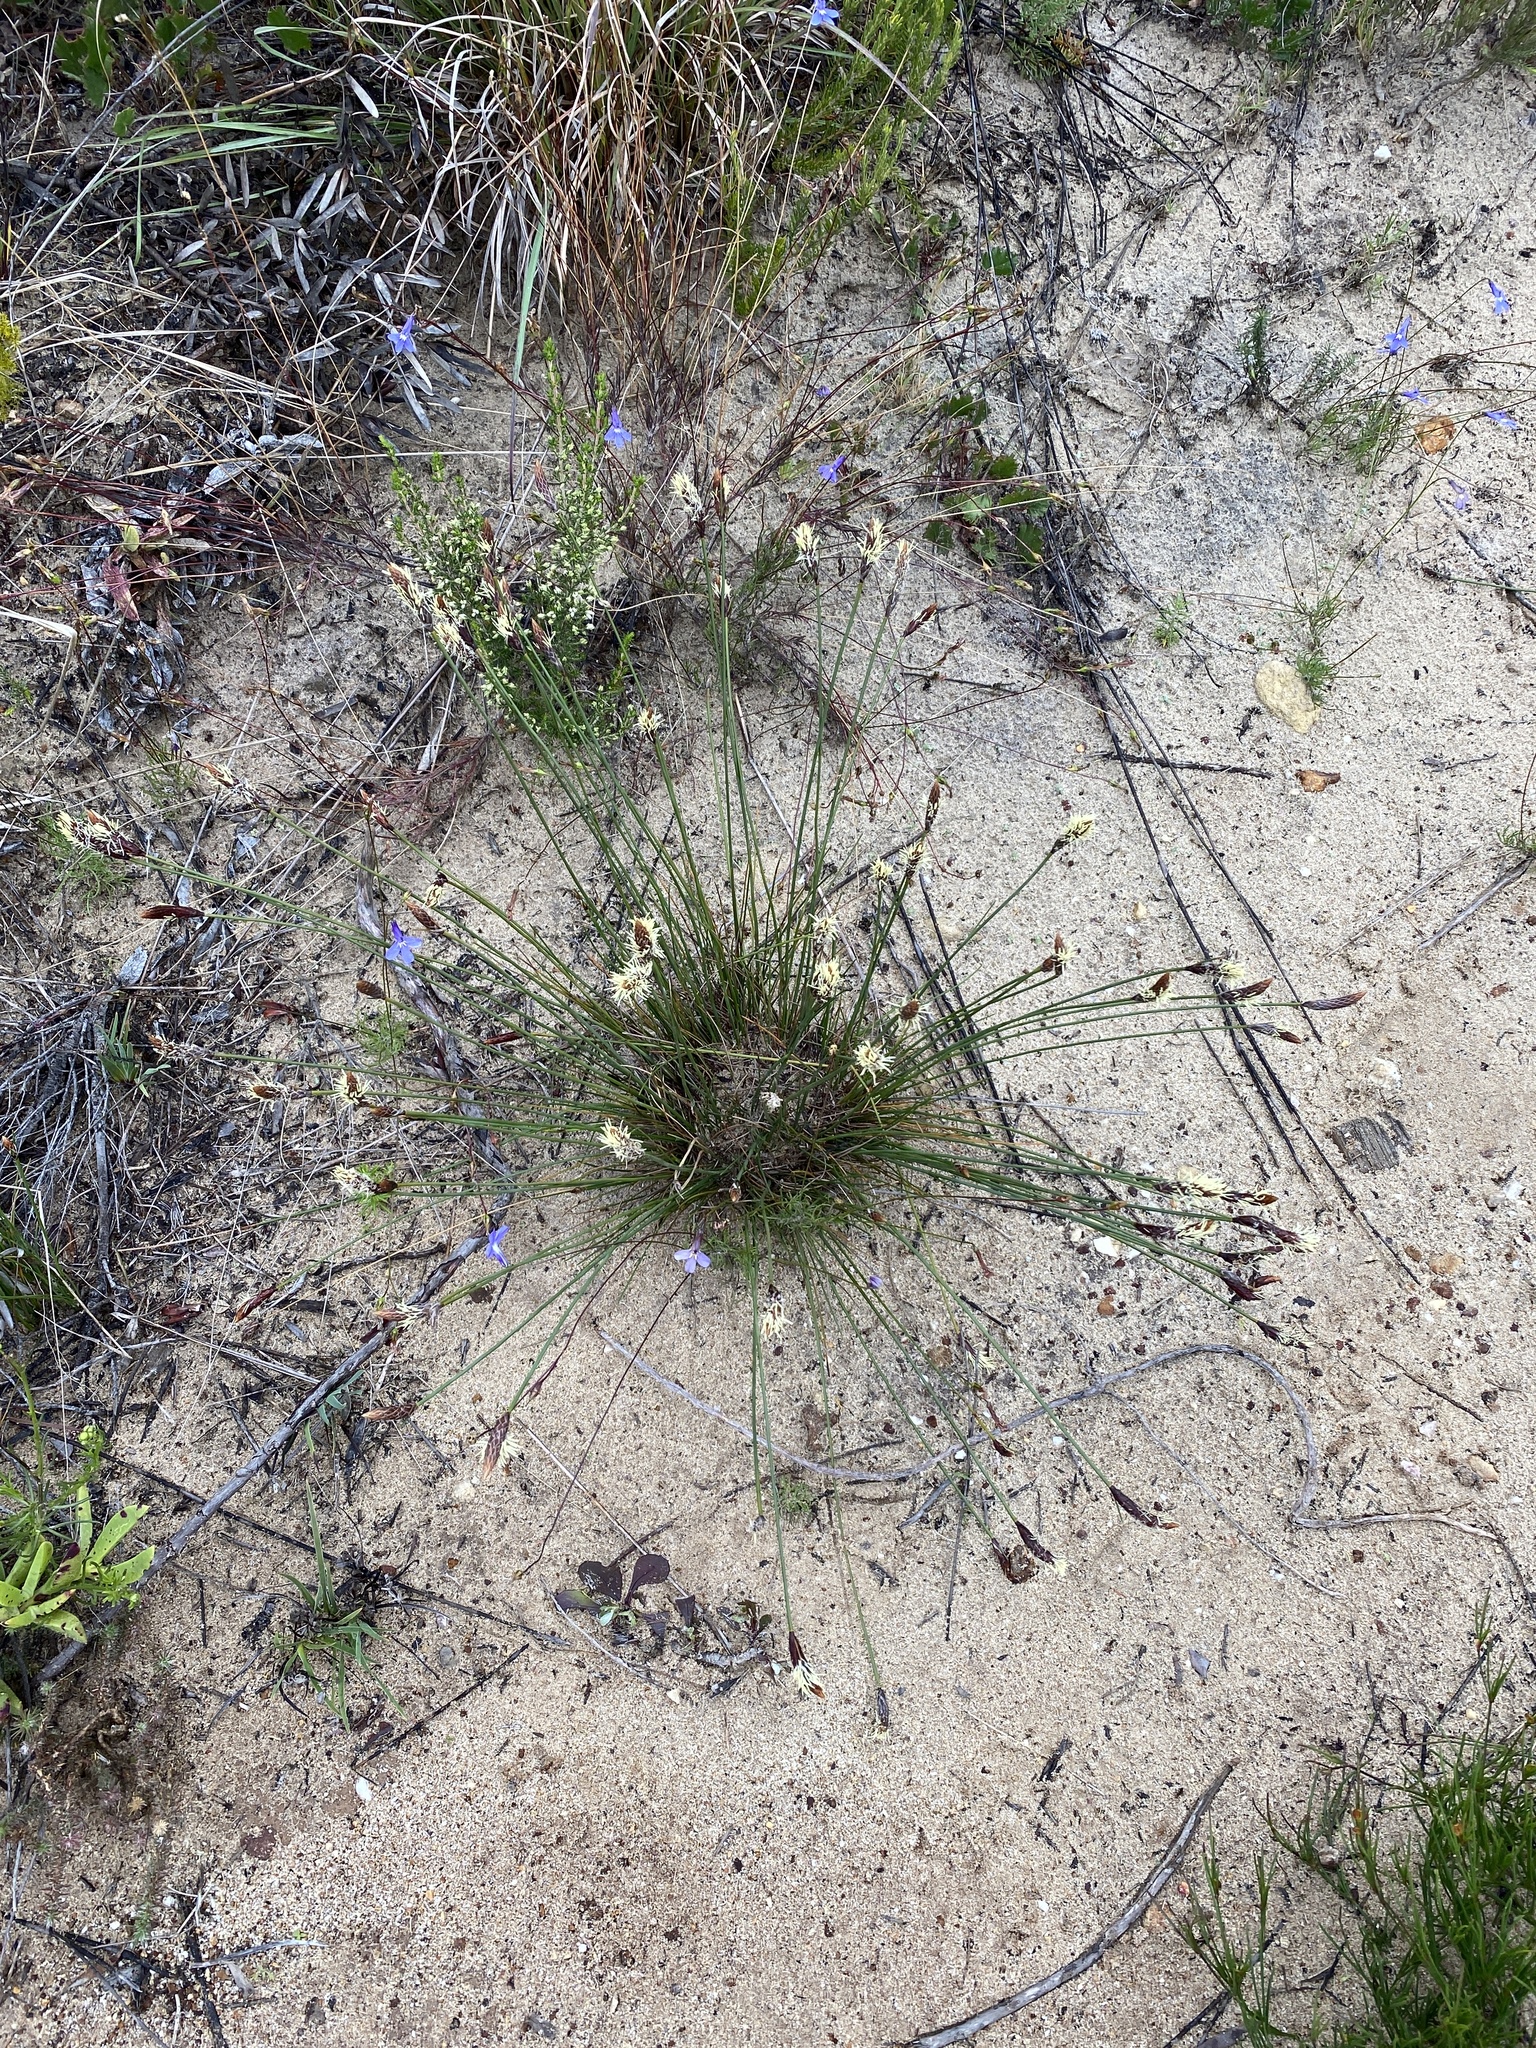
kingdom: Plantae
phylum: Tracheophyta
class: Liliopsida
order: Poales
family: Cyperaceae
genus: Ficinia
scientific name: Ficinia deusta
